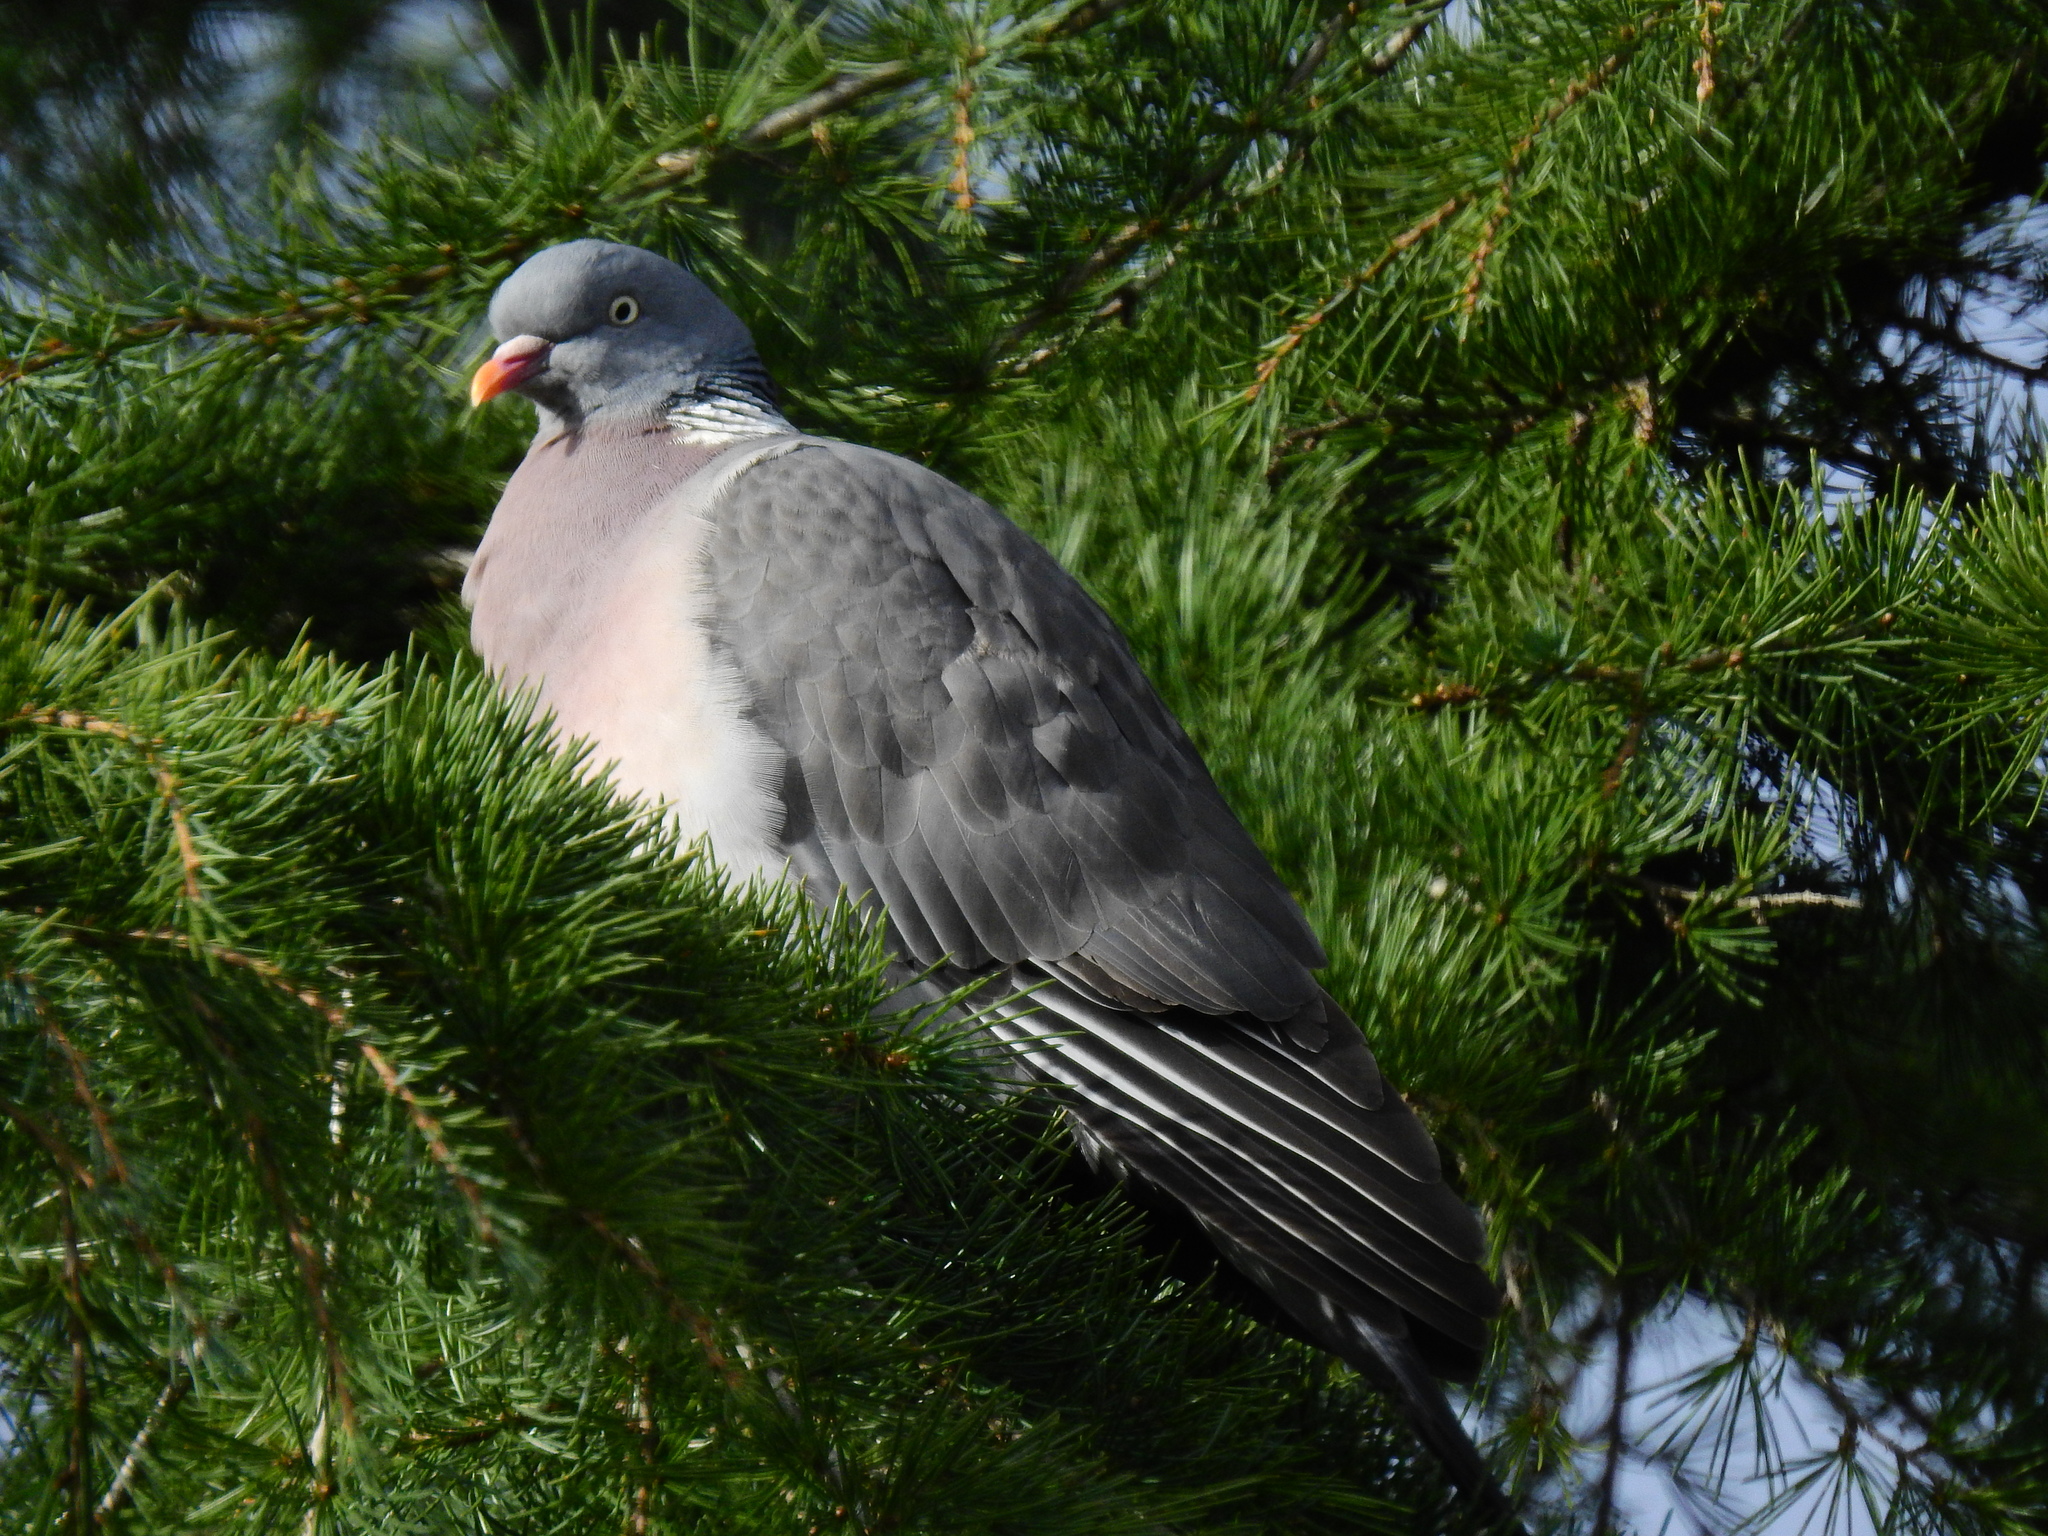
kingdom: Animalia
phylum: Chordata
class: Aves
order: Columbiformes
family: Columbidae
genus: Columba
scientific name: Columba palumbus
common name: Common wood pigeon
